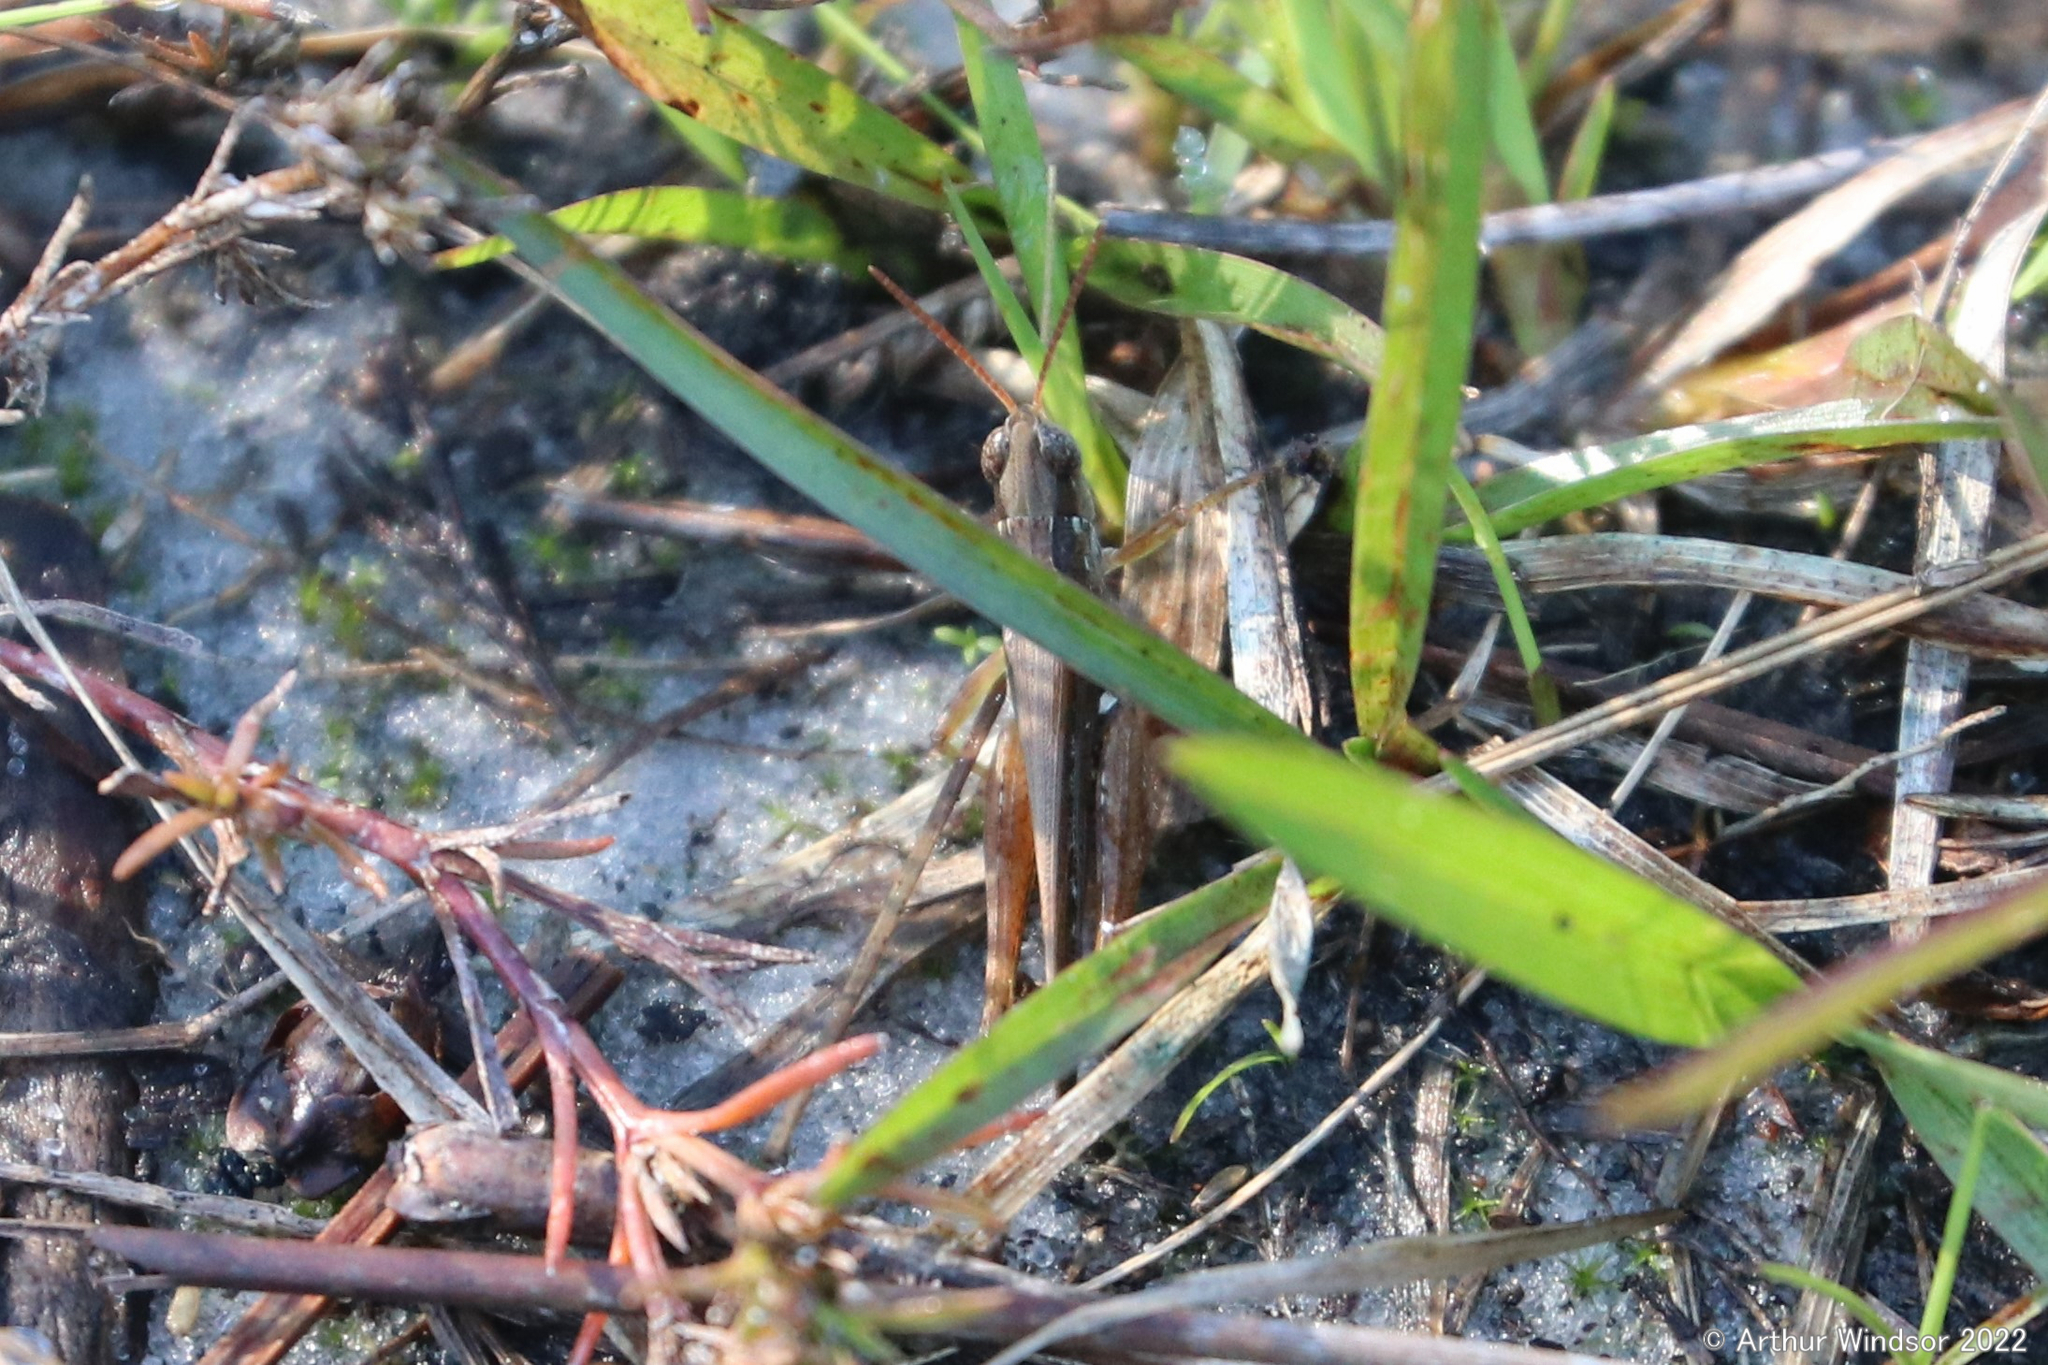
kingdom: Animalia
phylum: Arthropoda
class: Insecta
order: Orthoptera
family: Acrididae
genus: Orphulella
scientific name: Orphulella pelidna
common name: Spotted-wing grasshopper
